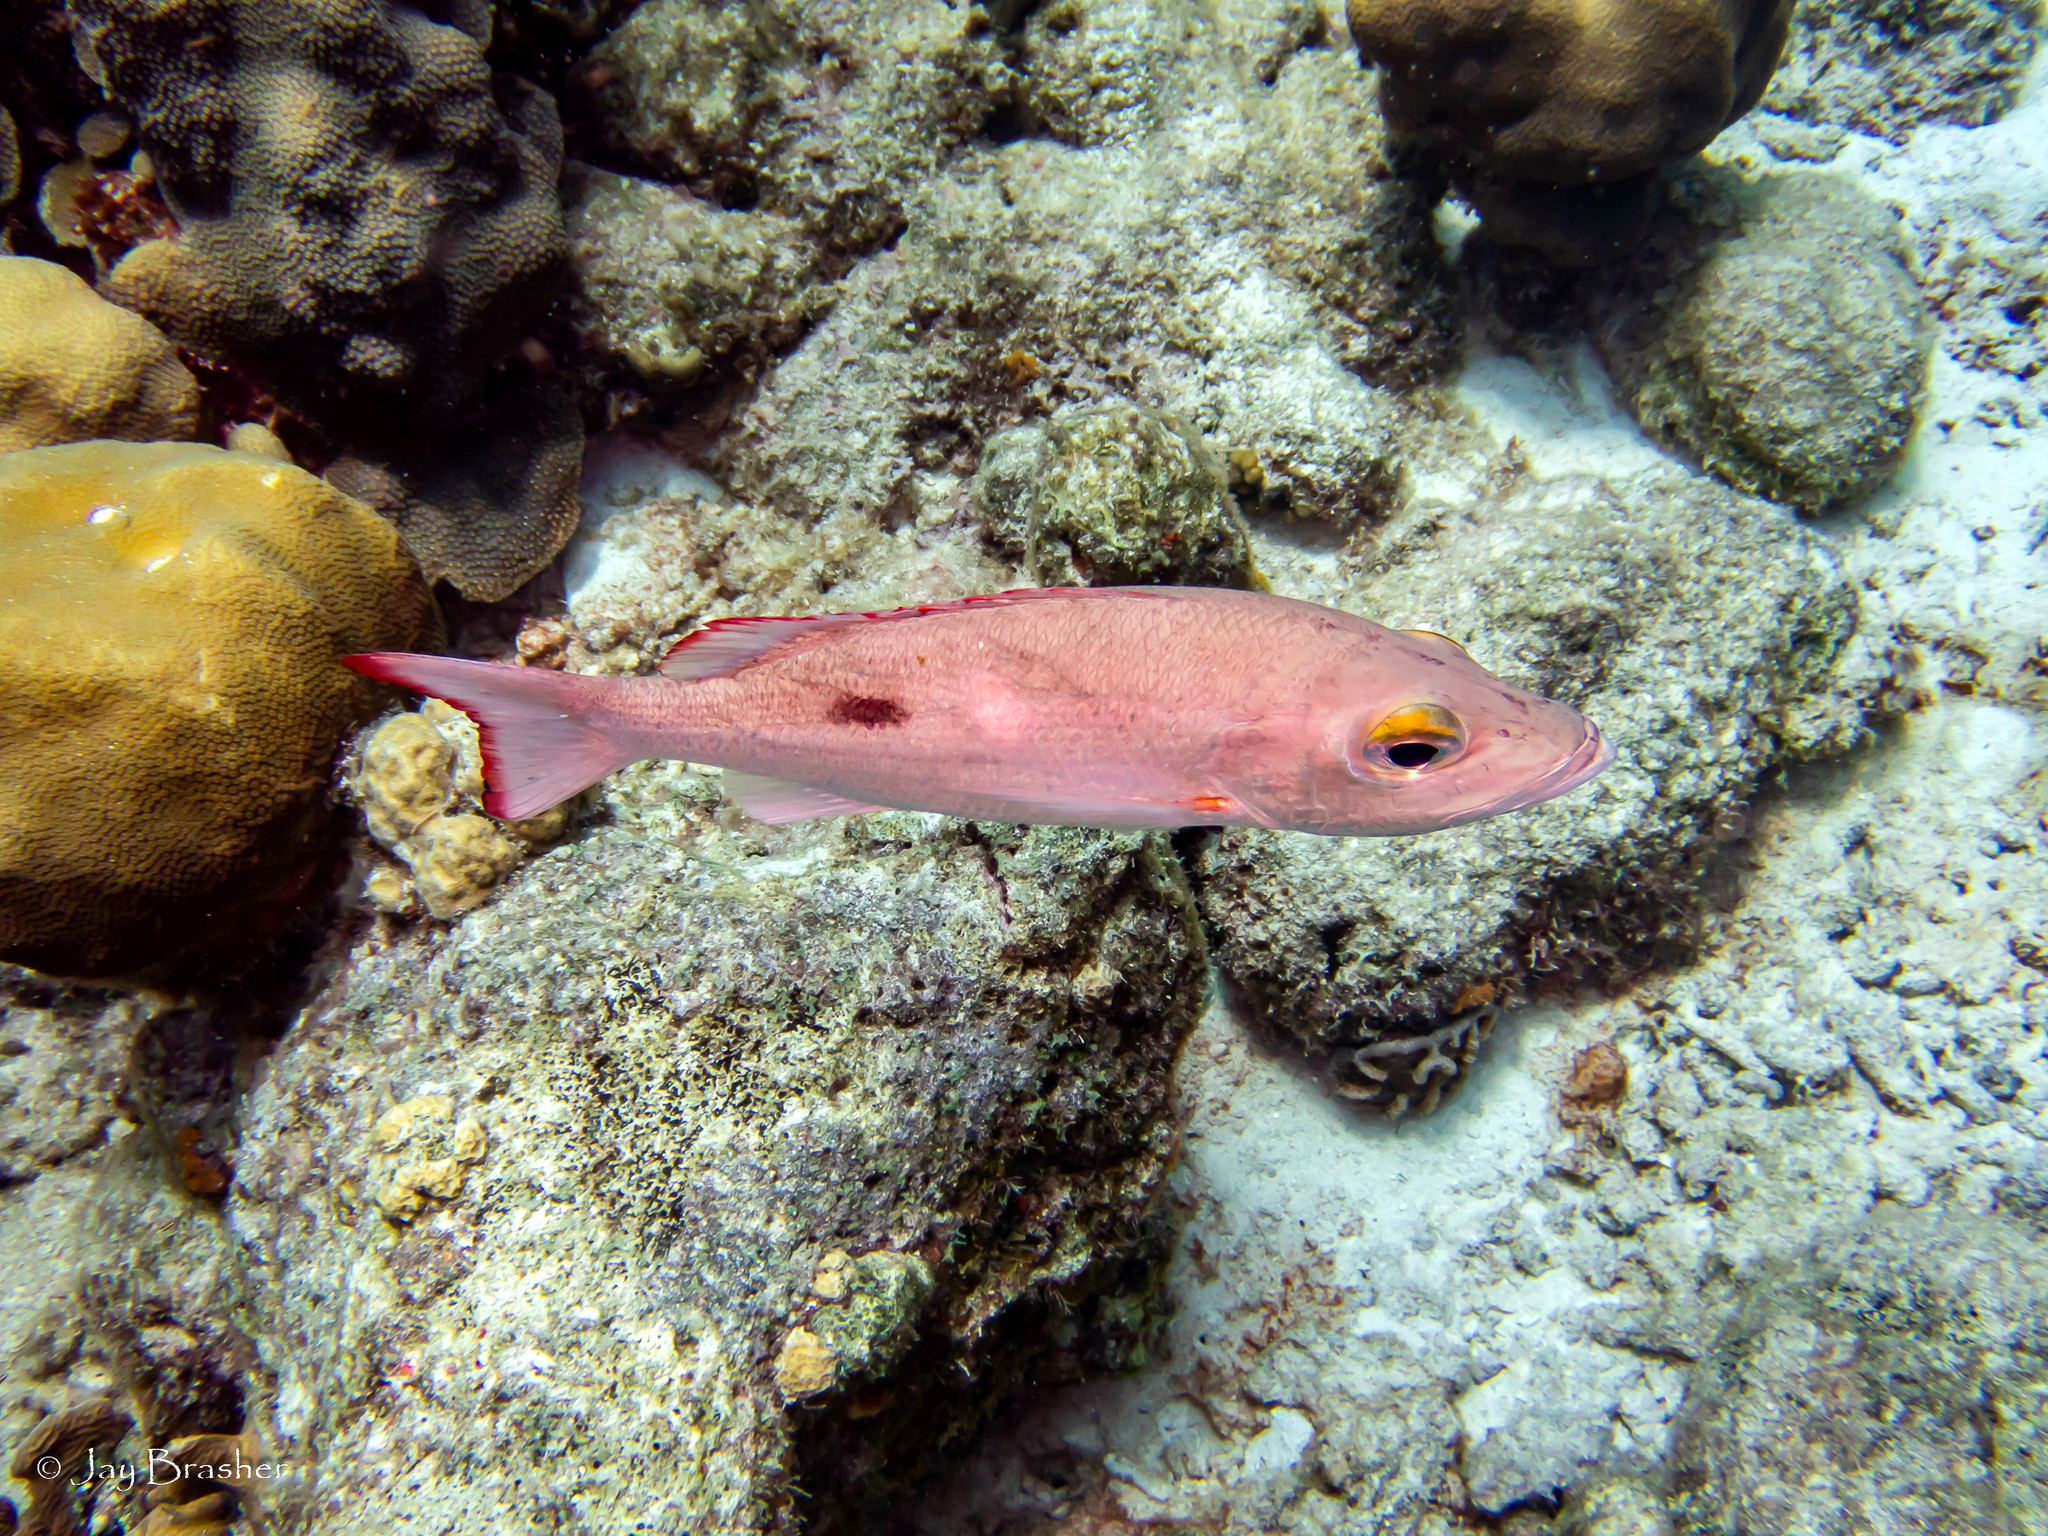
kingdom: Animalia
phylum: Chordata
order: Perciformes
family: Lutjanidae
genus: Lutjanus
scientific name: Lutjanus mahogoni
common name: Spot snapper
